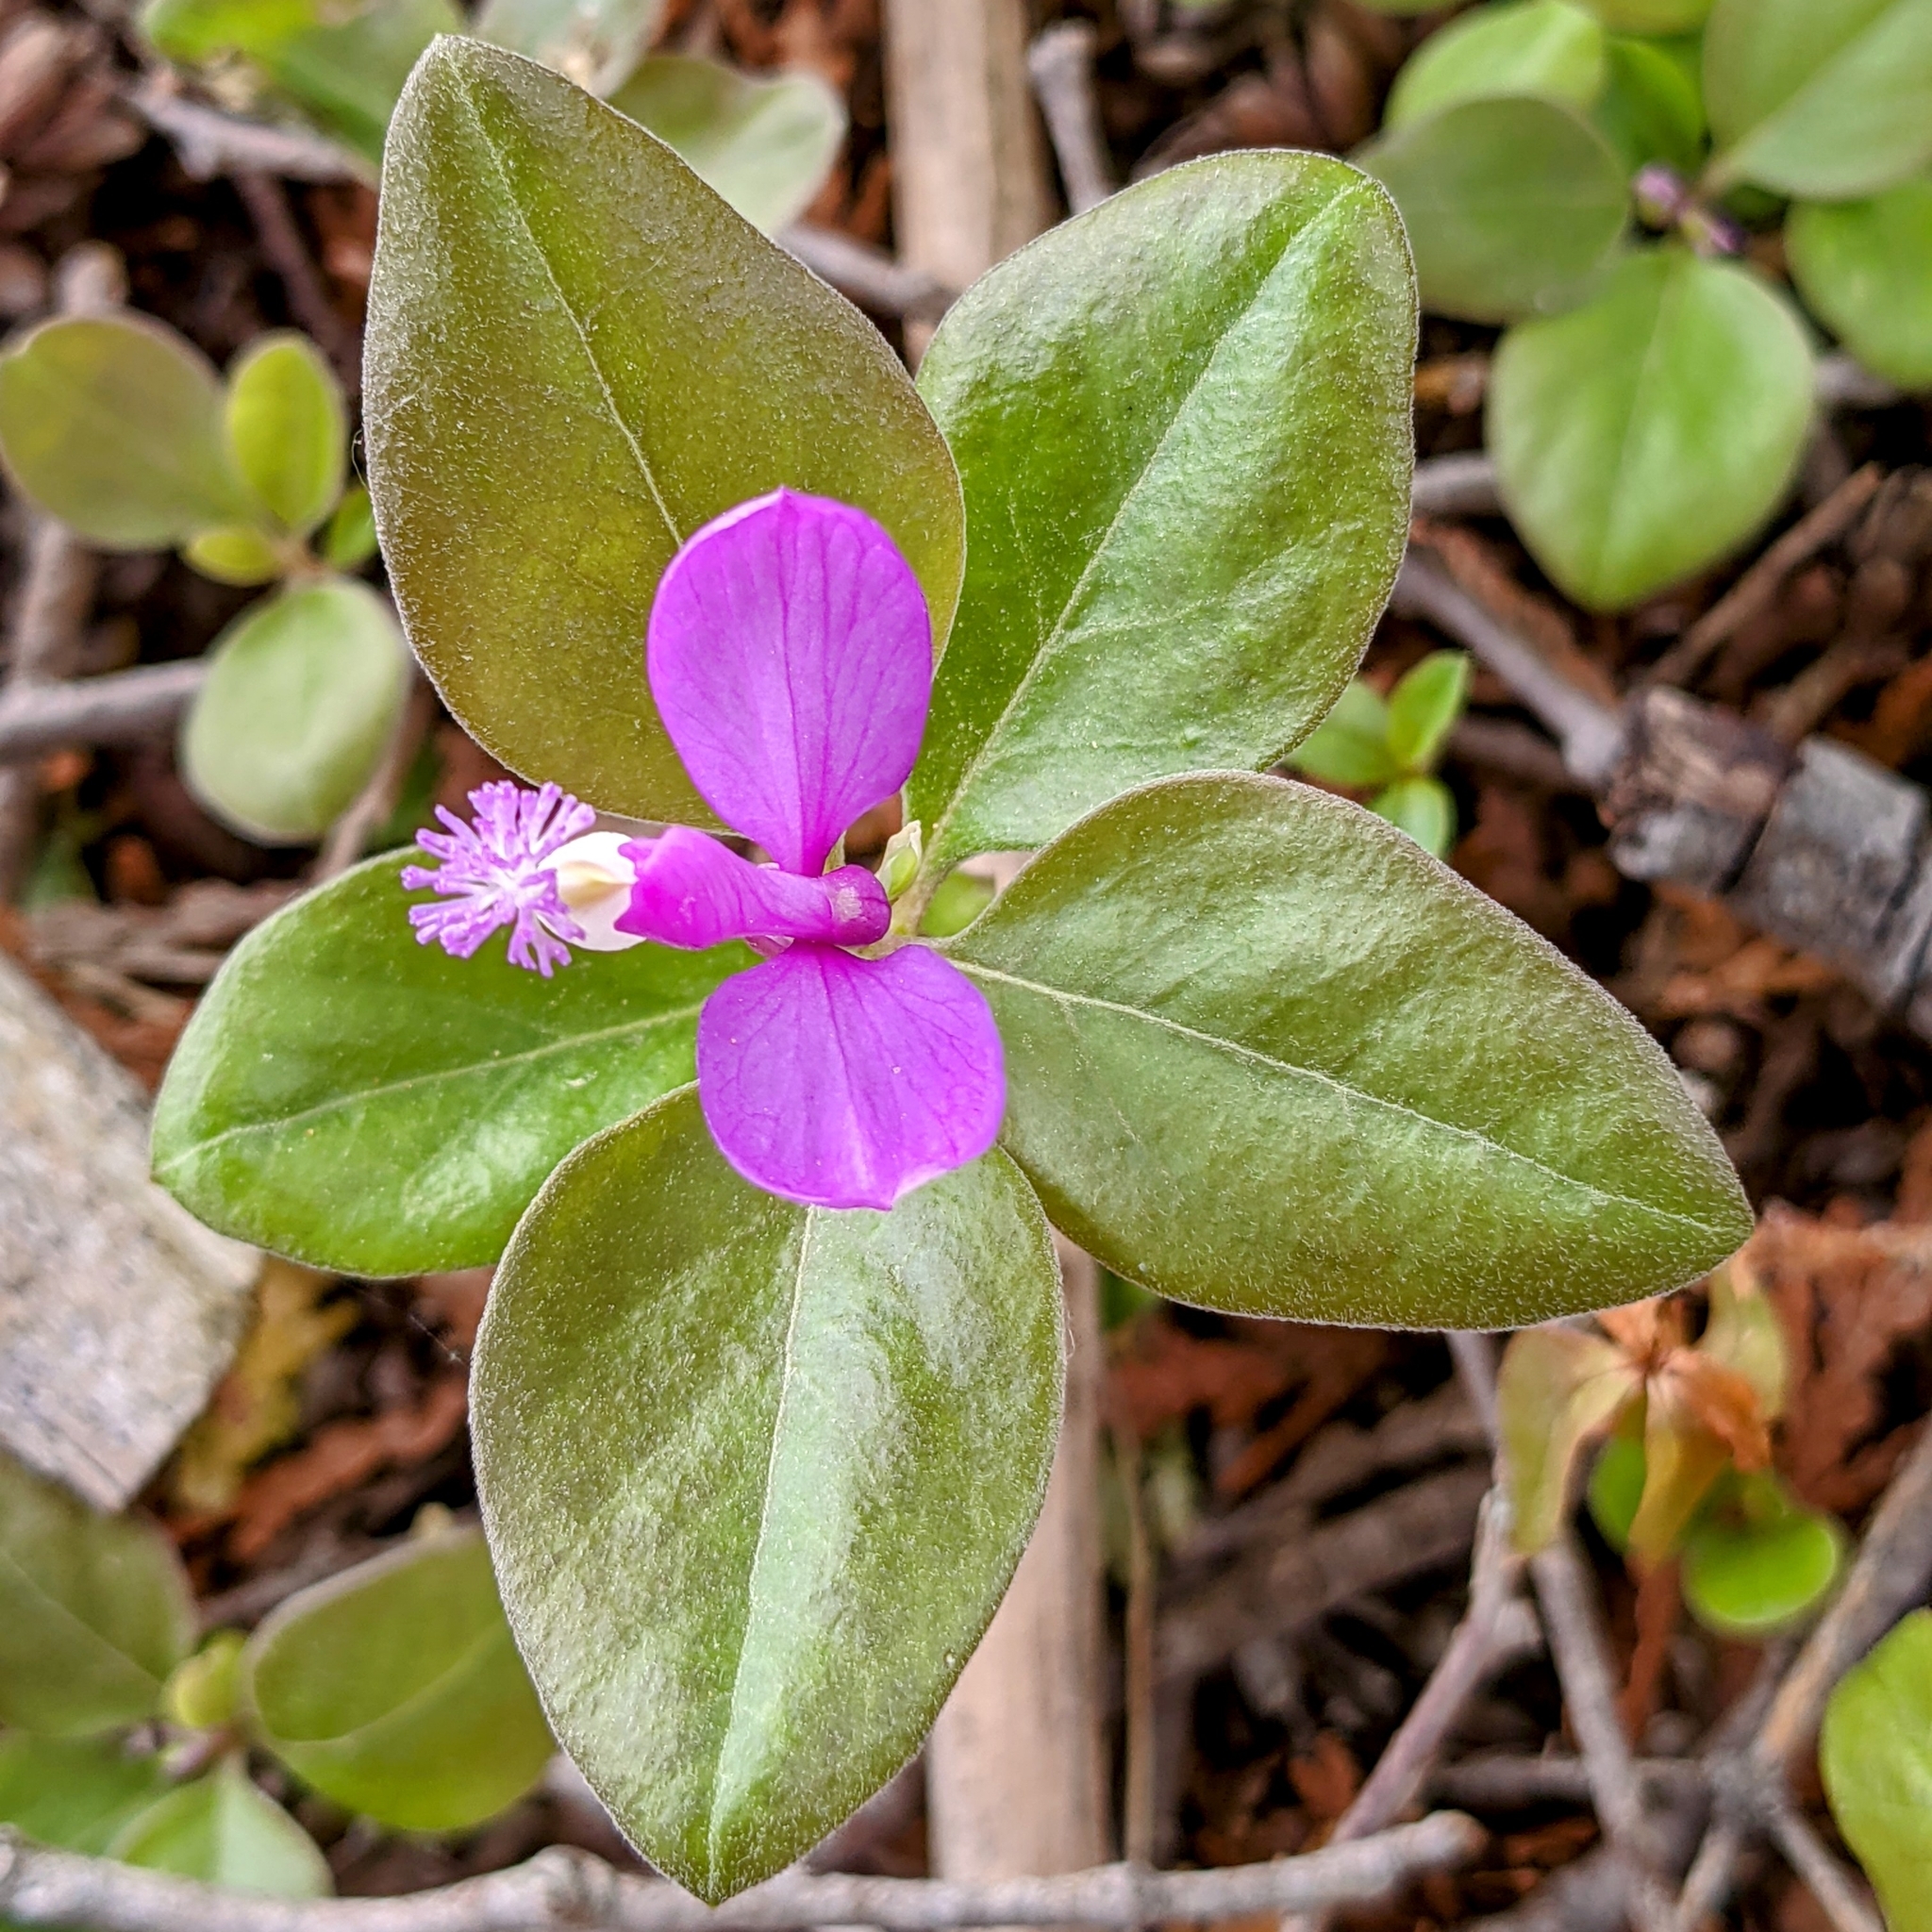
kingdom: Plantae
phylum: Tracheophyta
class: Magnoliopsida
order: Fabales
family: Polygalaceae
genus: Polygaloides
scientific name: Polygaloides paucifolia
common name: Bird-on-the-wing
